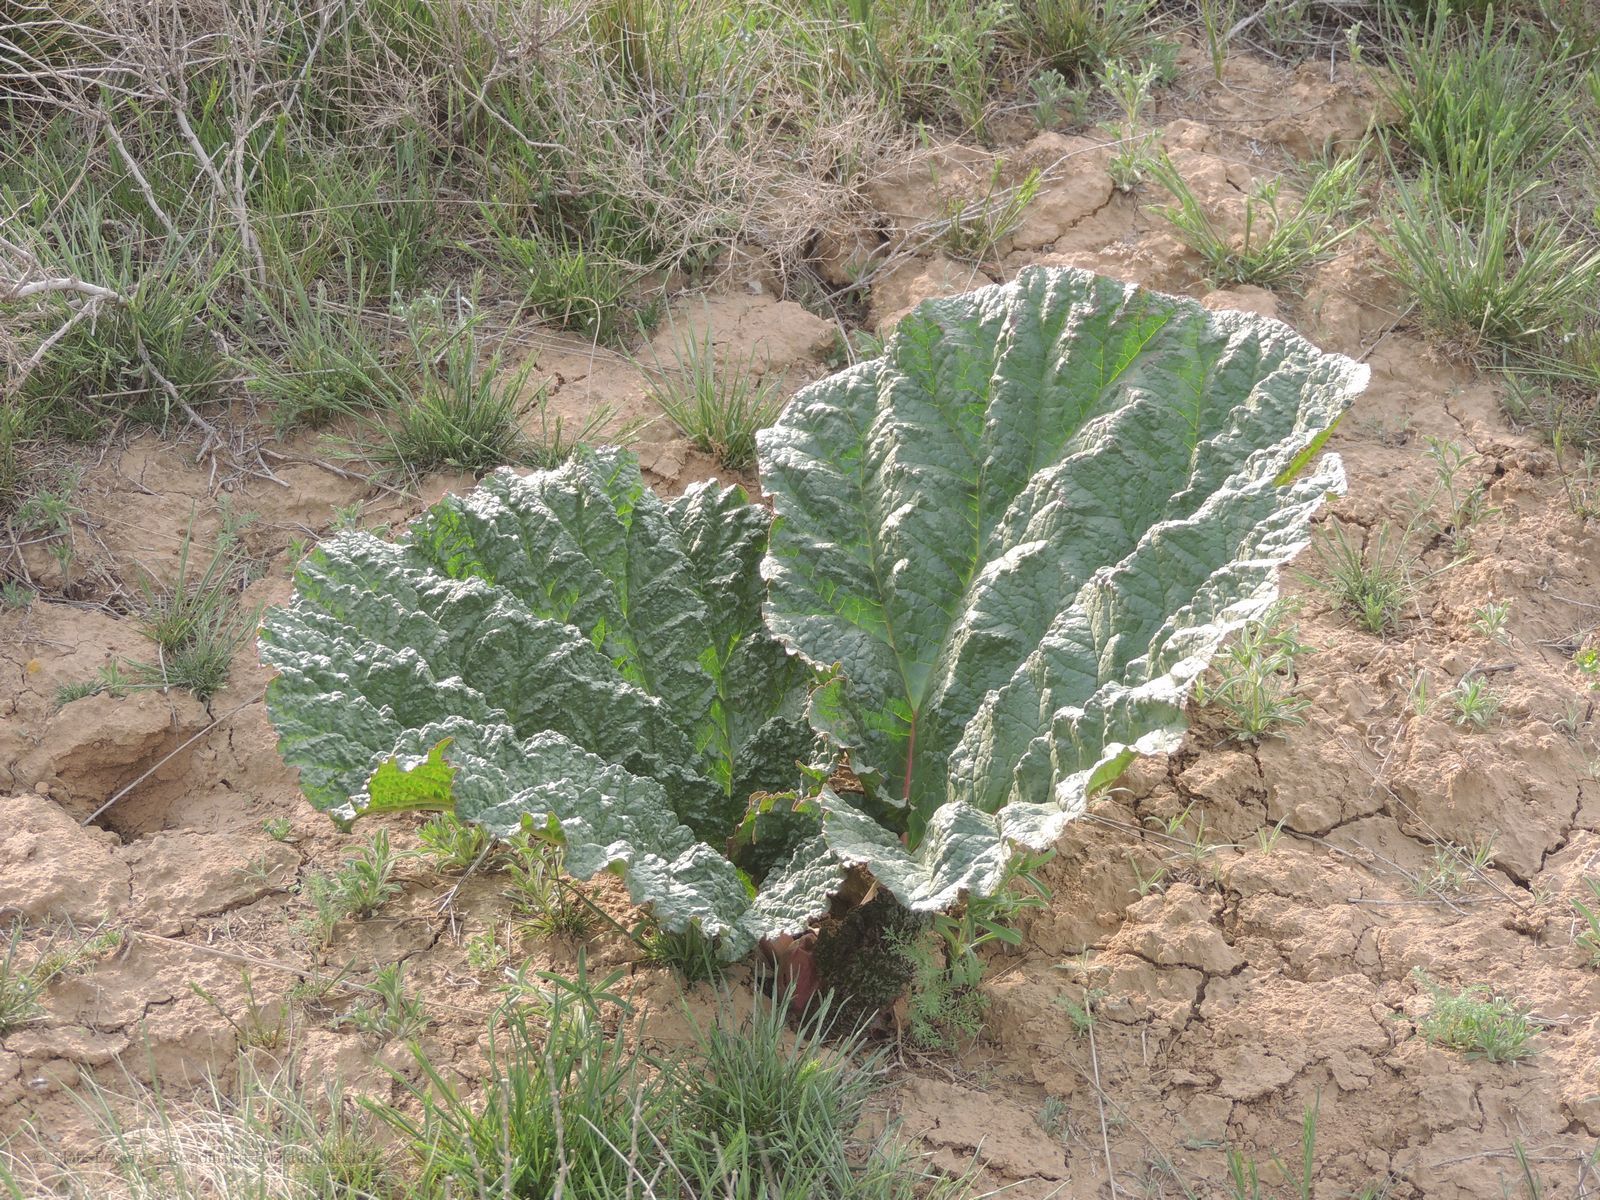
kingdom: Plantae
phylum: Tracheophyta
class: Magnoliopsida
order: Caryophyllales
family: Polygonaceae
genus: Rheum
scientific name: Rheum tataricum
